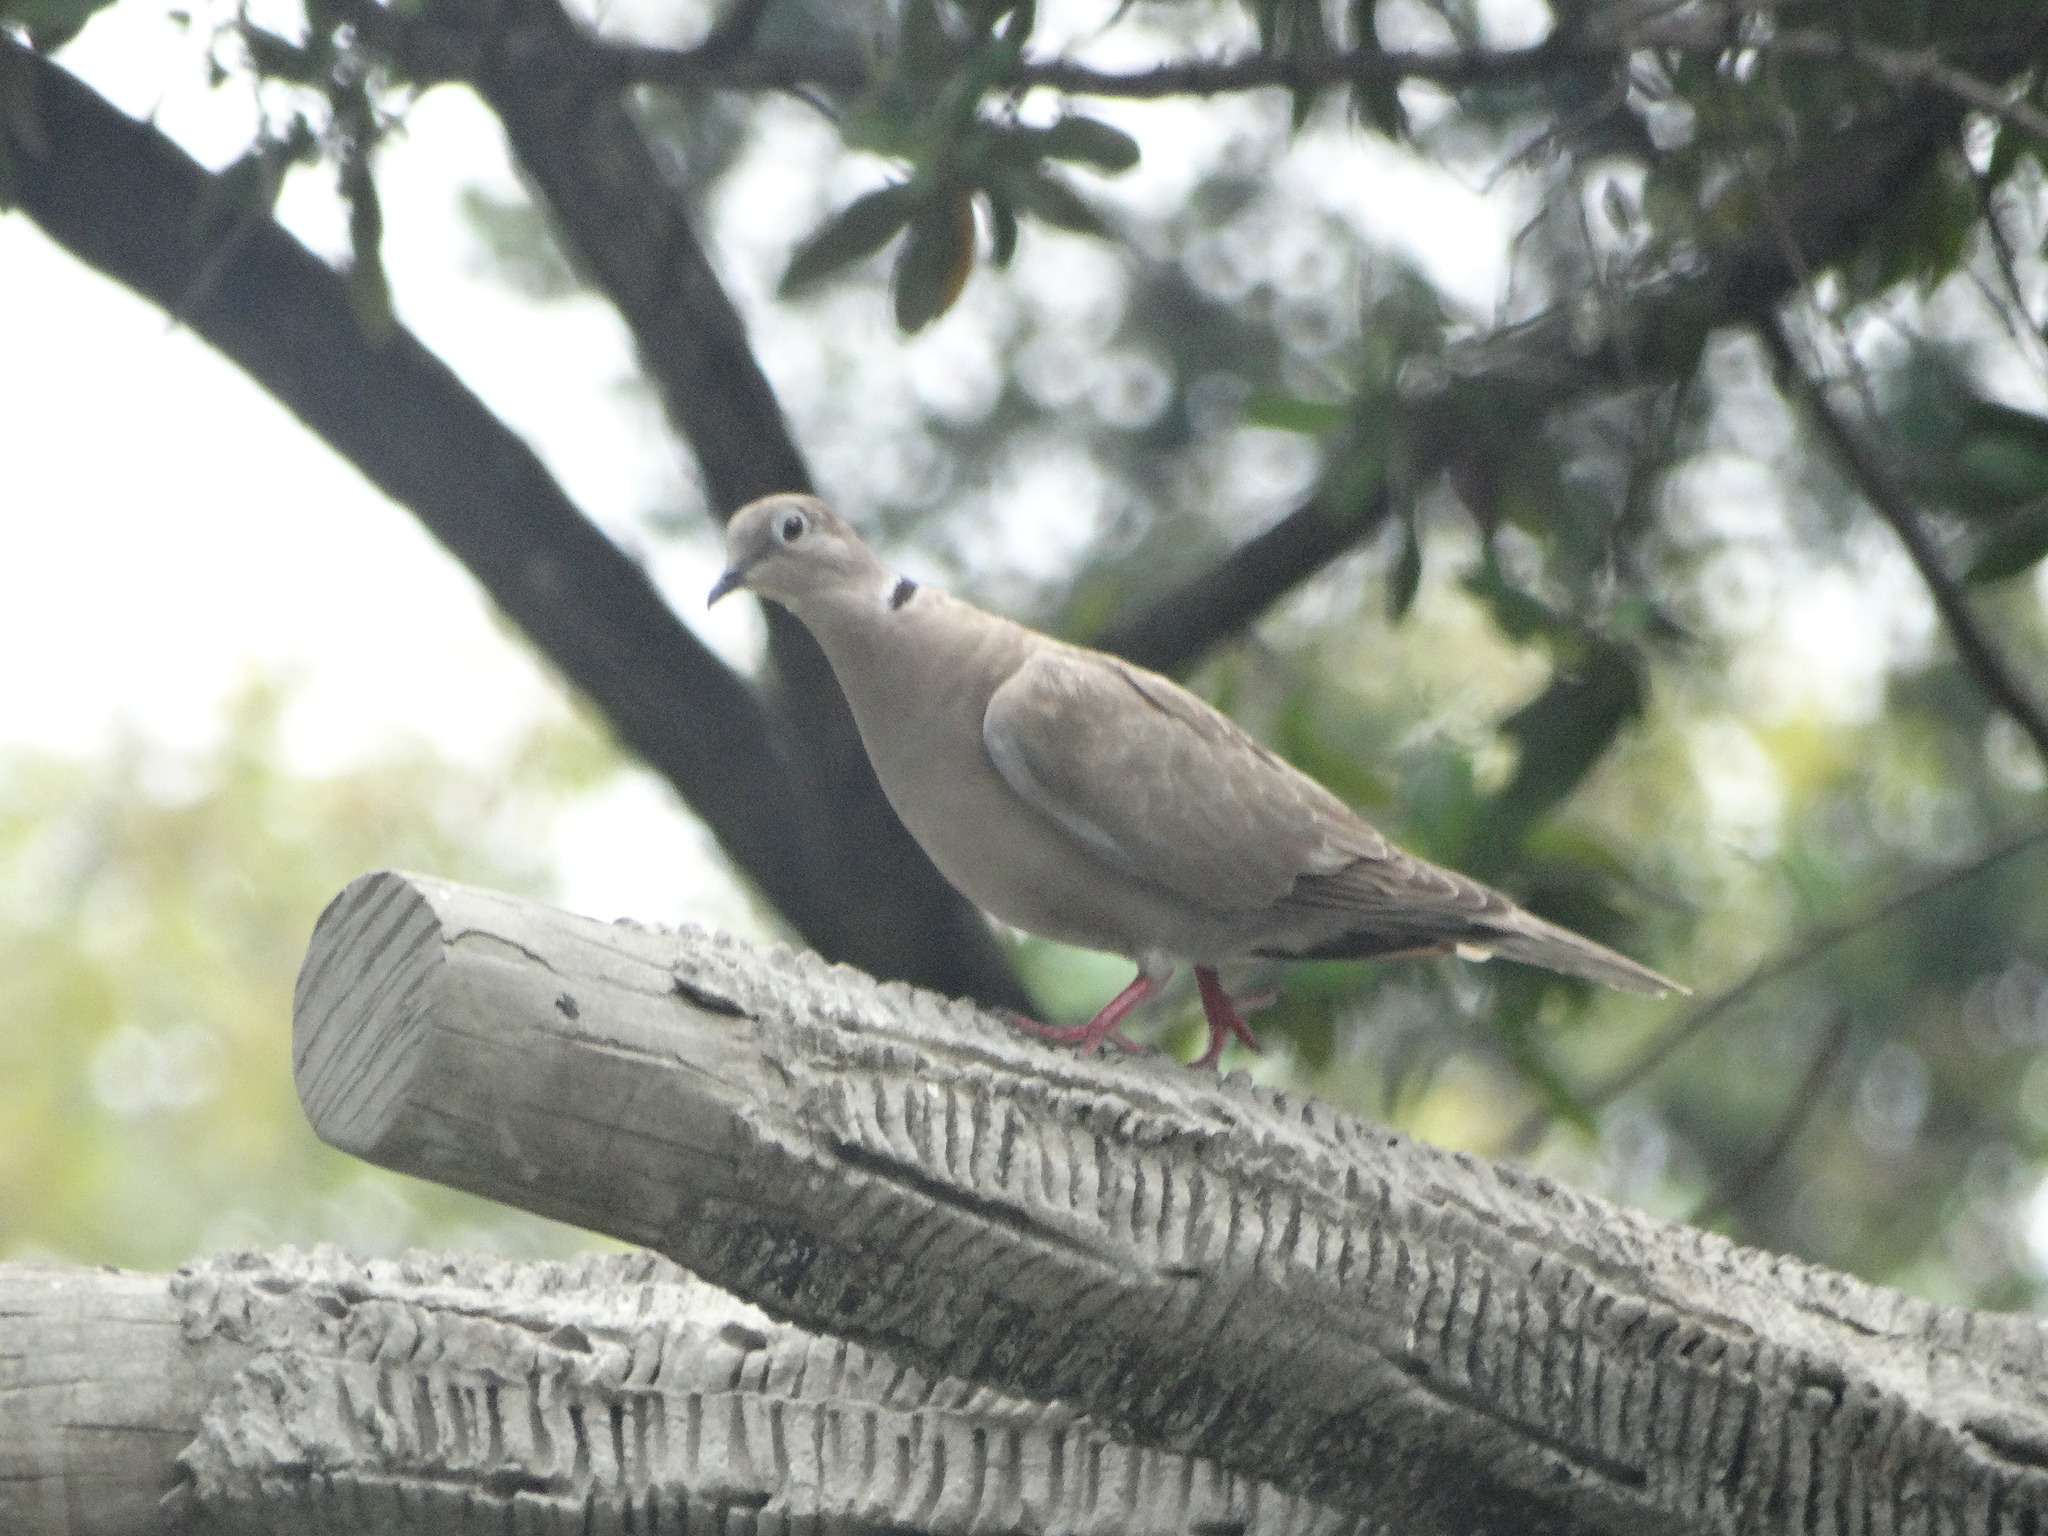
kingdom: Animalia
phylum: Chordata
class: Aves
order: Columbiformes
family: Columbidae
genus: Streptopelia
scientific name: Streptopelia decaocto
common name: Eurasian collared dove
